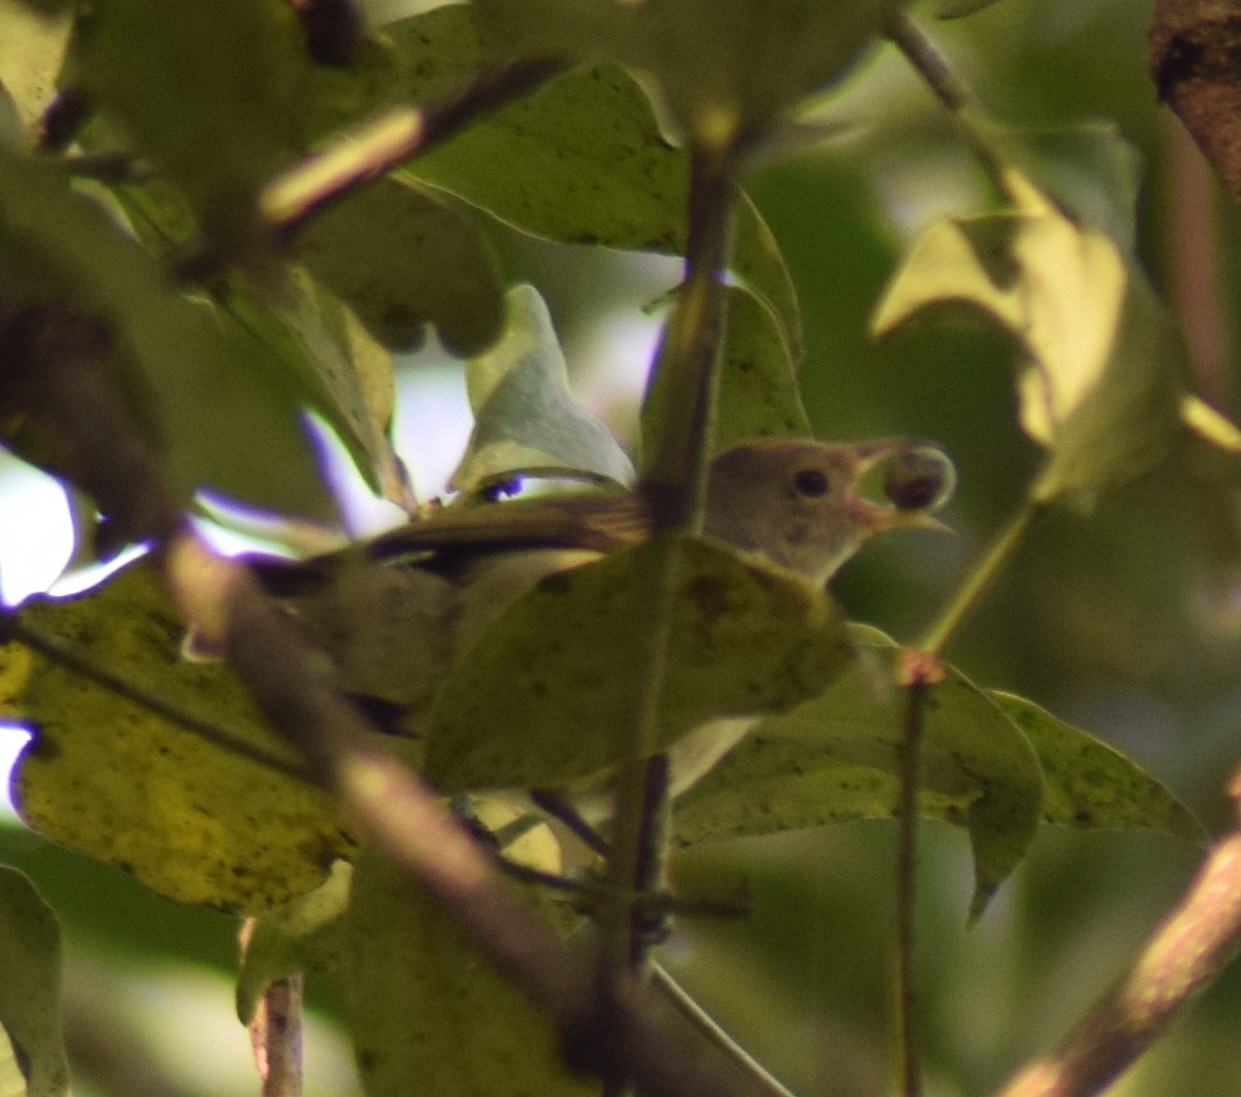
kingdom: Animalia
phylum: Chordata
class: Aves
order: Passeriformes
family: Dicaeidae
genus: Dicaeum
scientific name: Dicaeum erythrorhynchos
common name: Pale-billed flowerpecker
